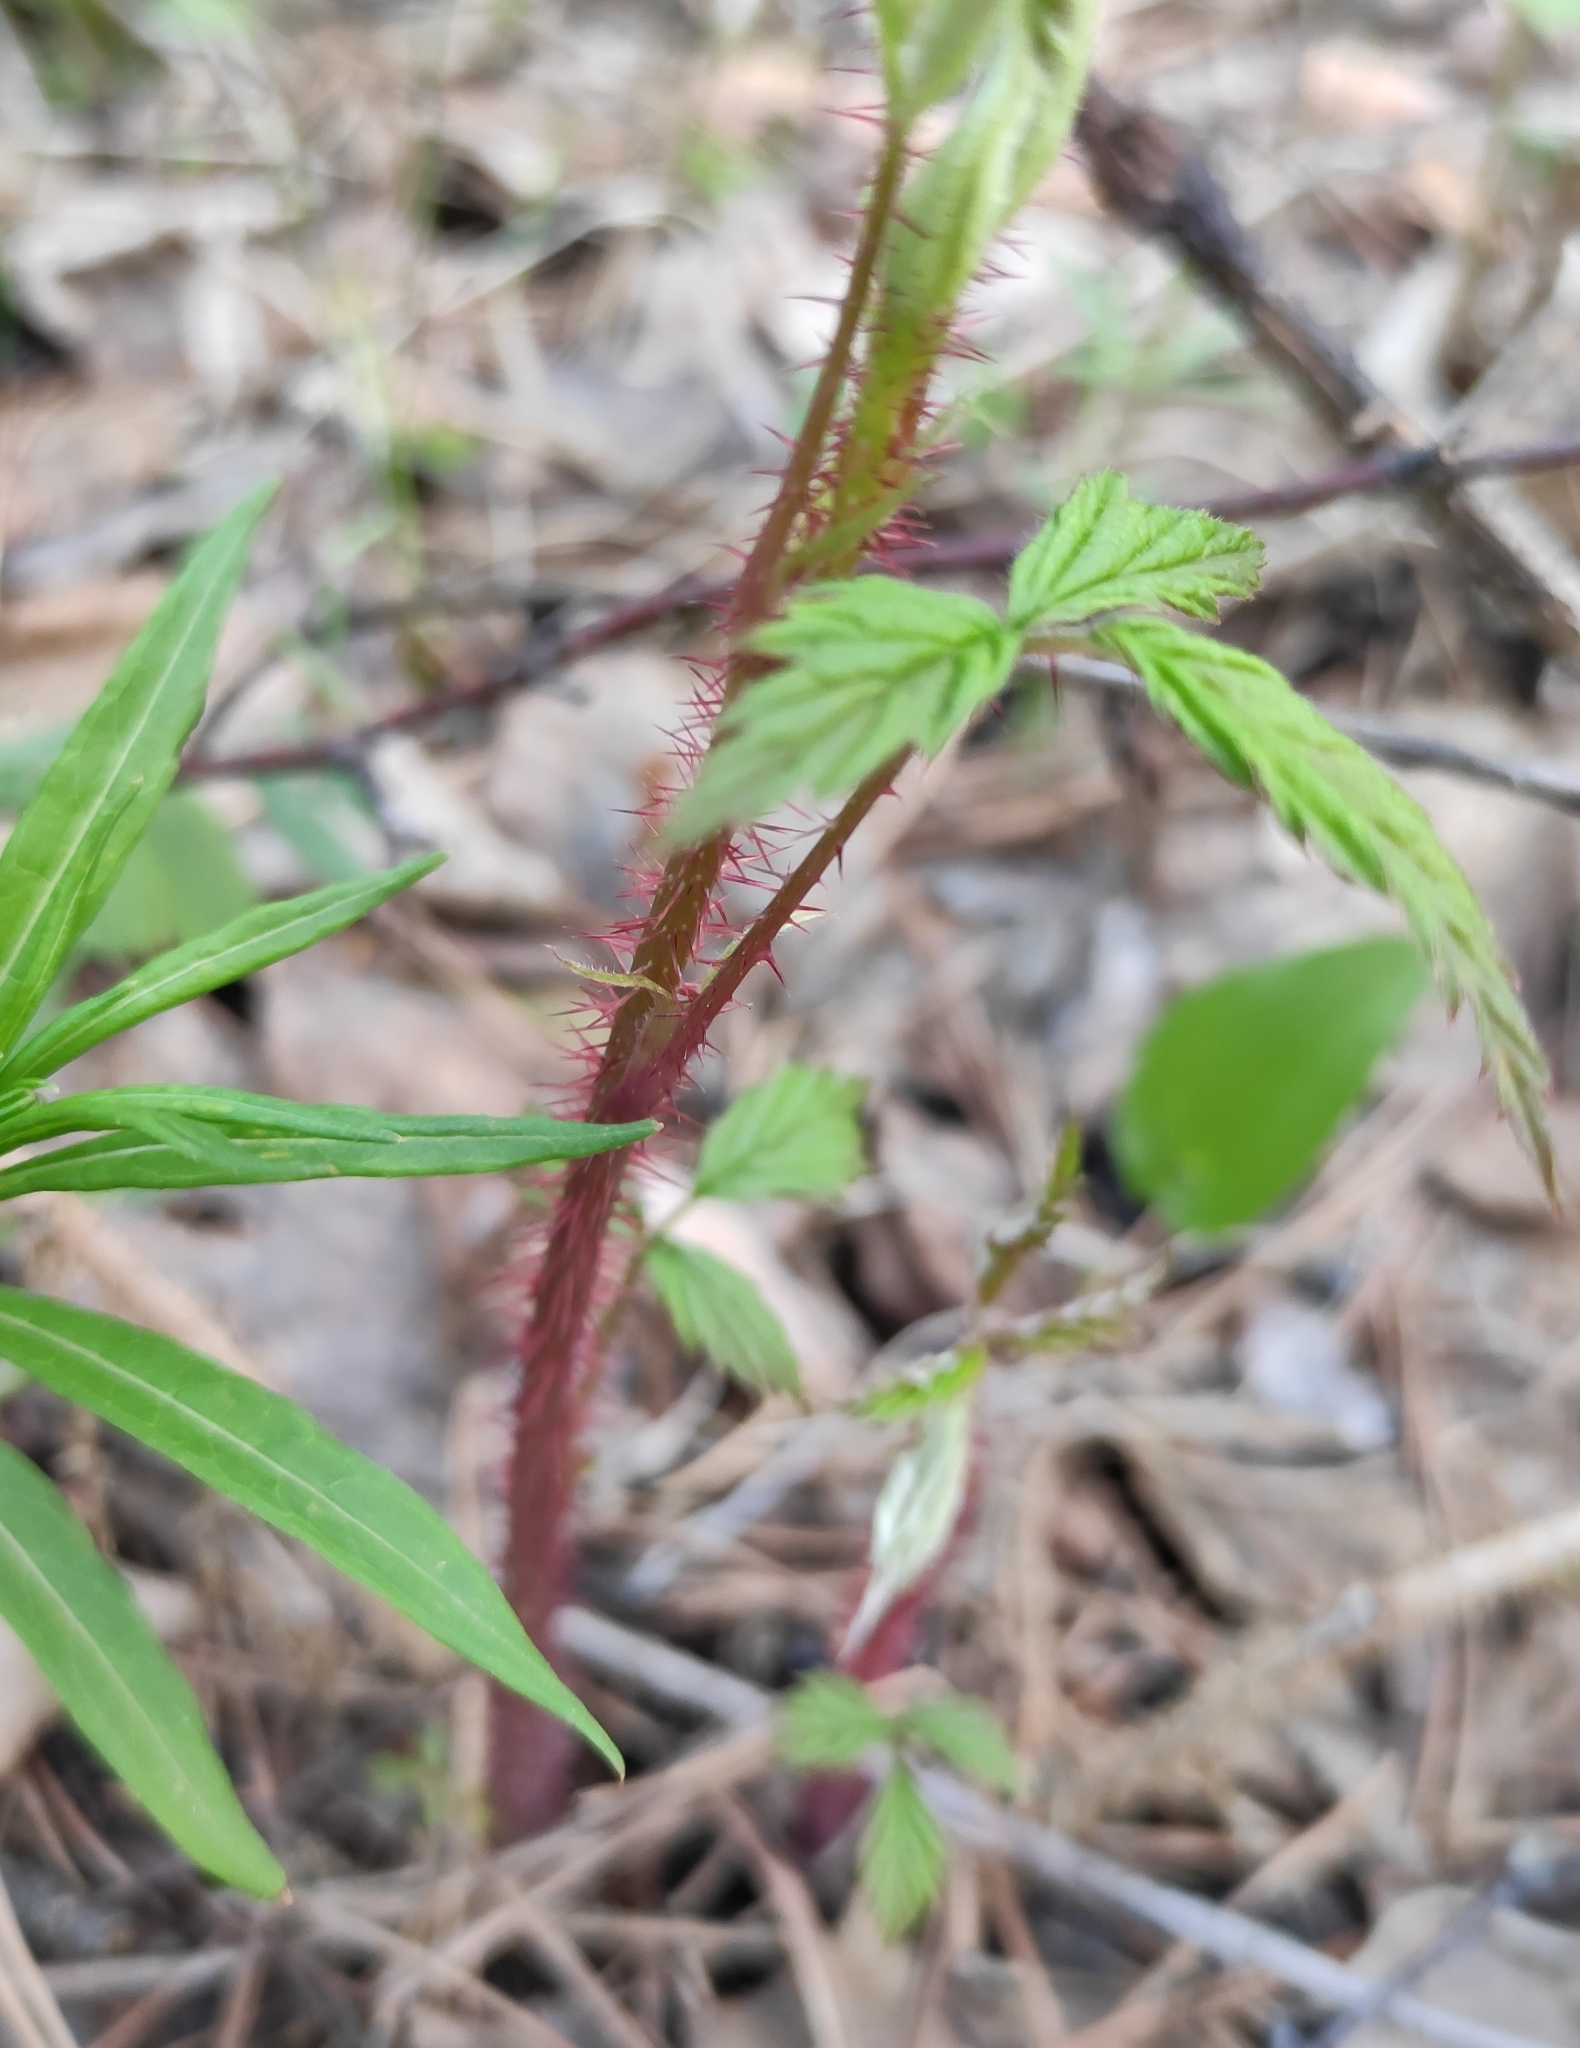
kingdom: Plantae
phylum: Tracheophyta
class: Magnoliopsida
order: Rosales
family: Rosaceae
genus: Rubus
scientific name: Rubus idaeus
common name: Raspberry
